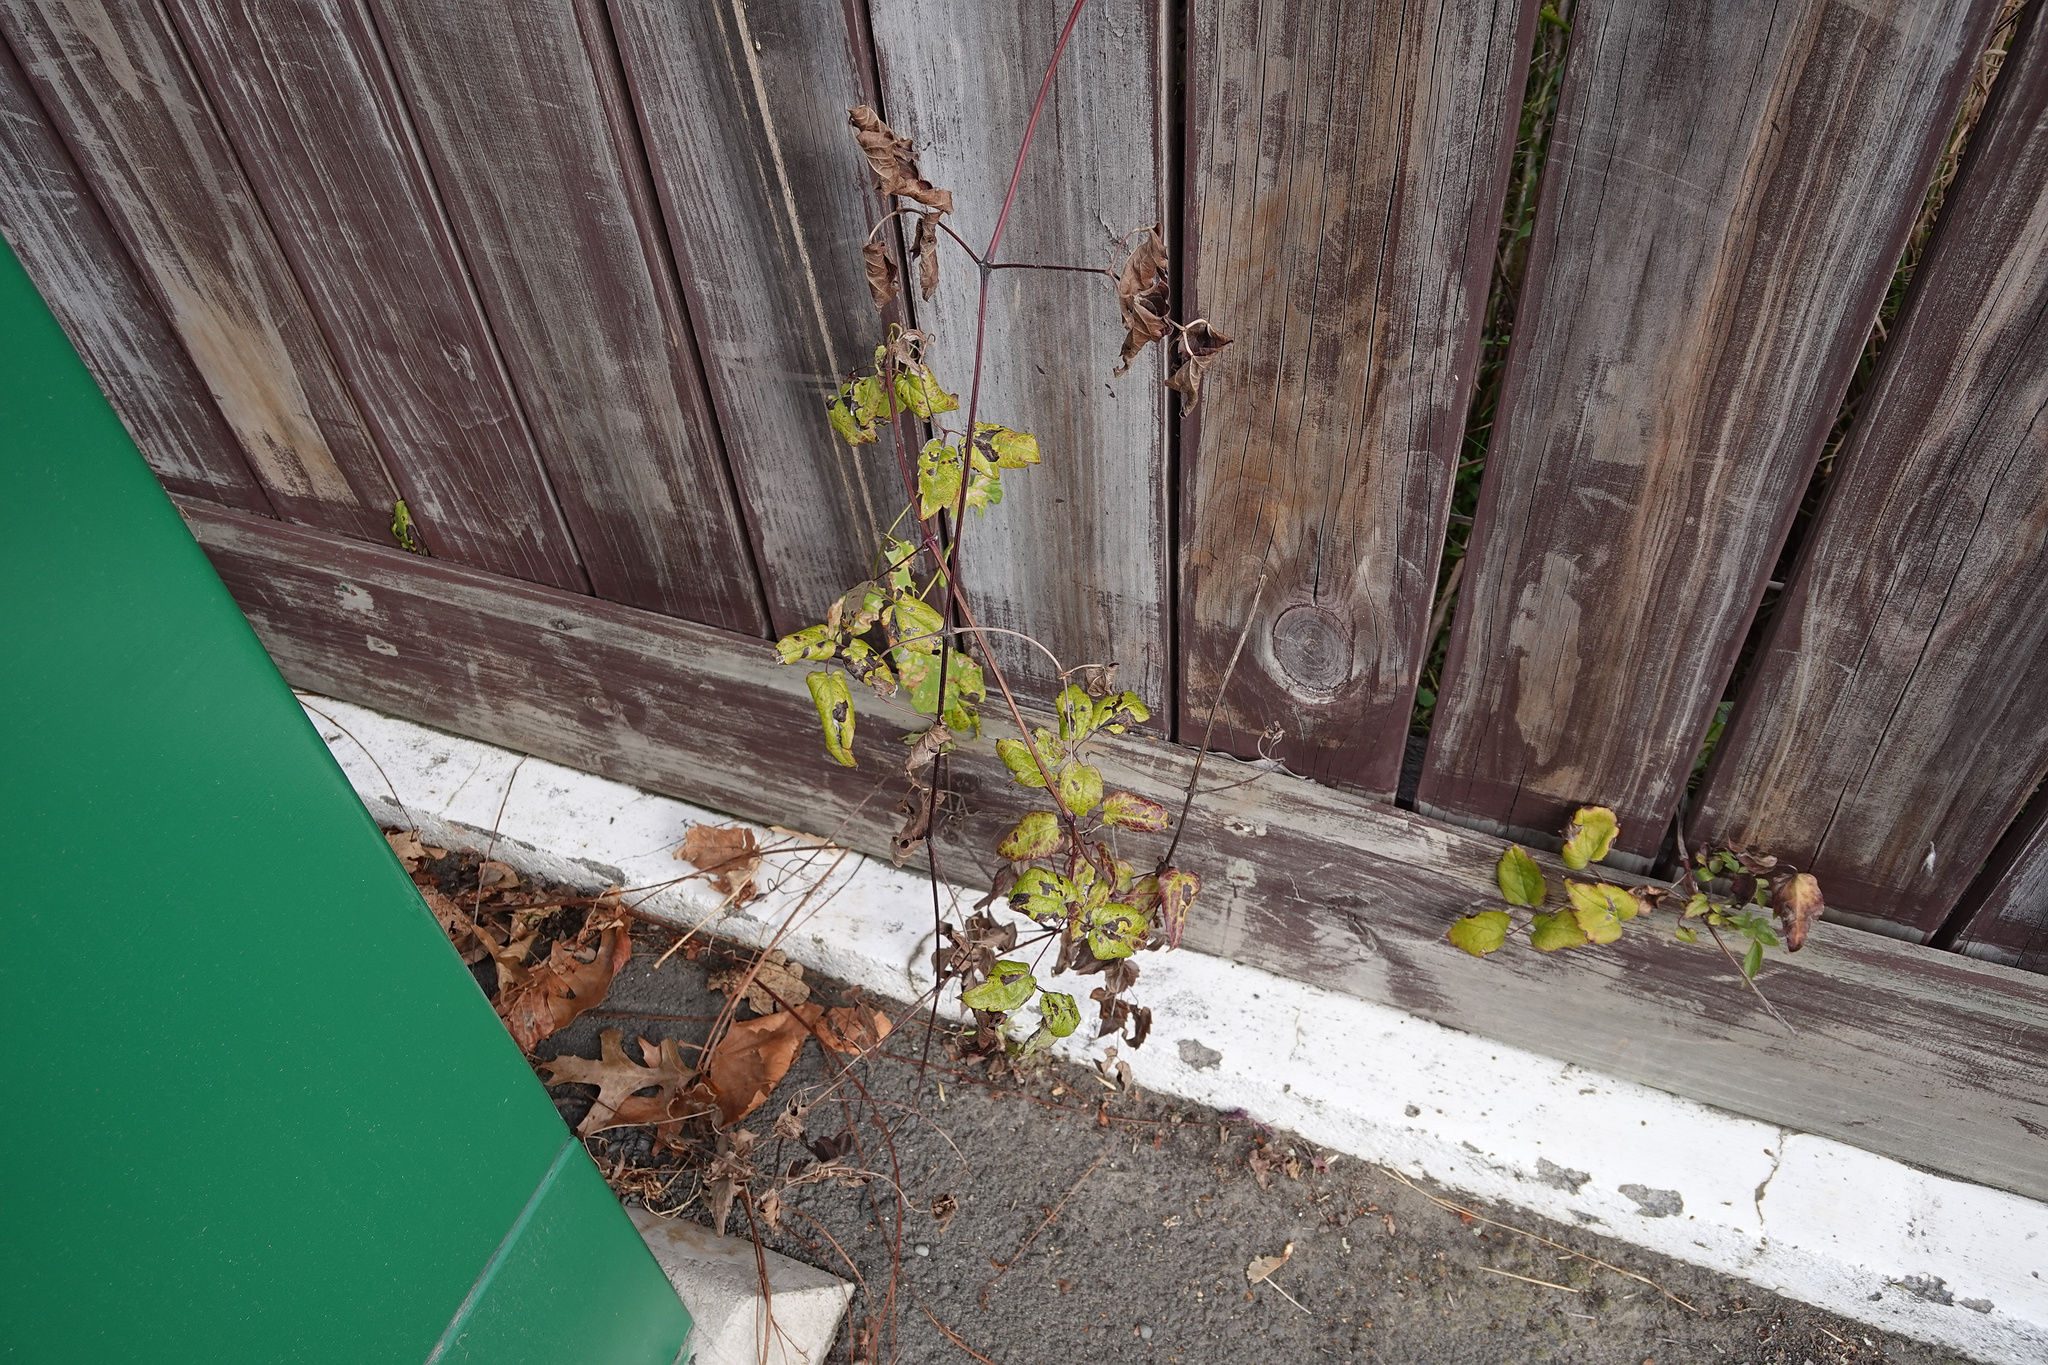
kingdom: Plantae
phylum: Tracheophyta
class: Magnoliopsida
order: Ranunculales
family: Ranunculaceae
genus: Clematis
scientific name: Clematis vitalba
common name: Evergreen clematis
